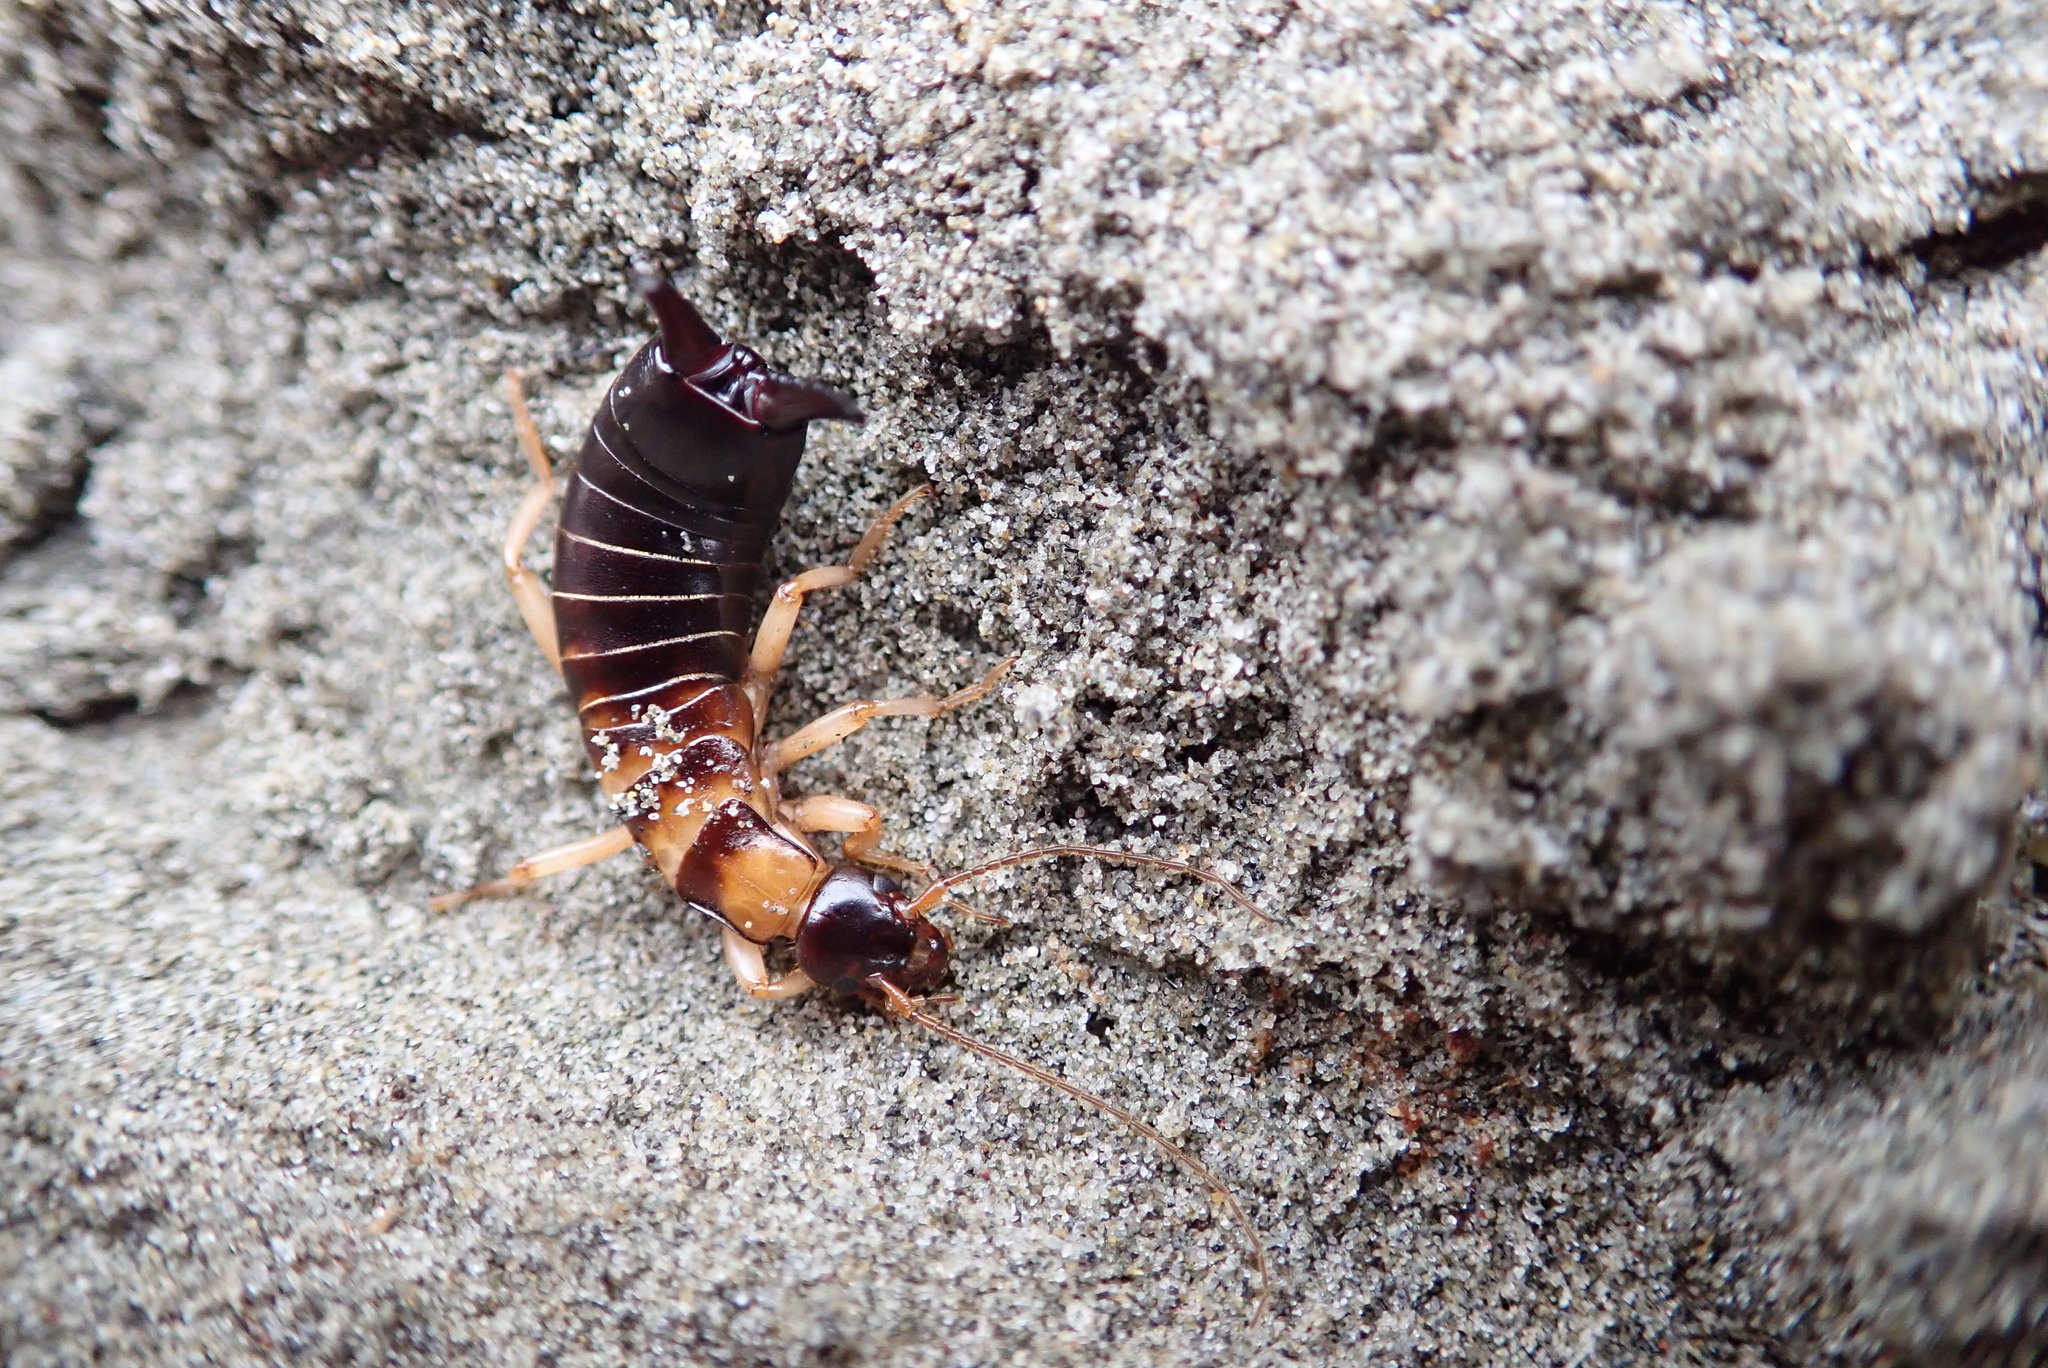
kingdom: Animalia
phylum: Arthropoda
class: Insecta
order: Dermaptera
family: Anisolabididae
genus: Anisolabis
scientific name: Anisolabis littorea
